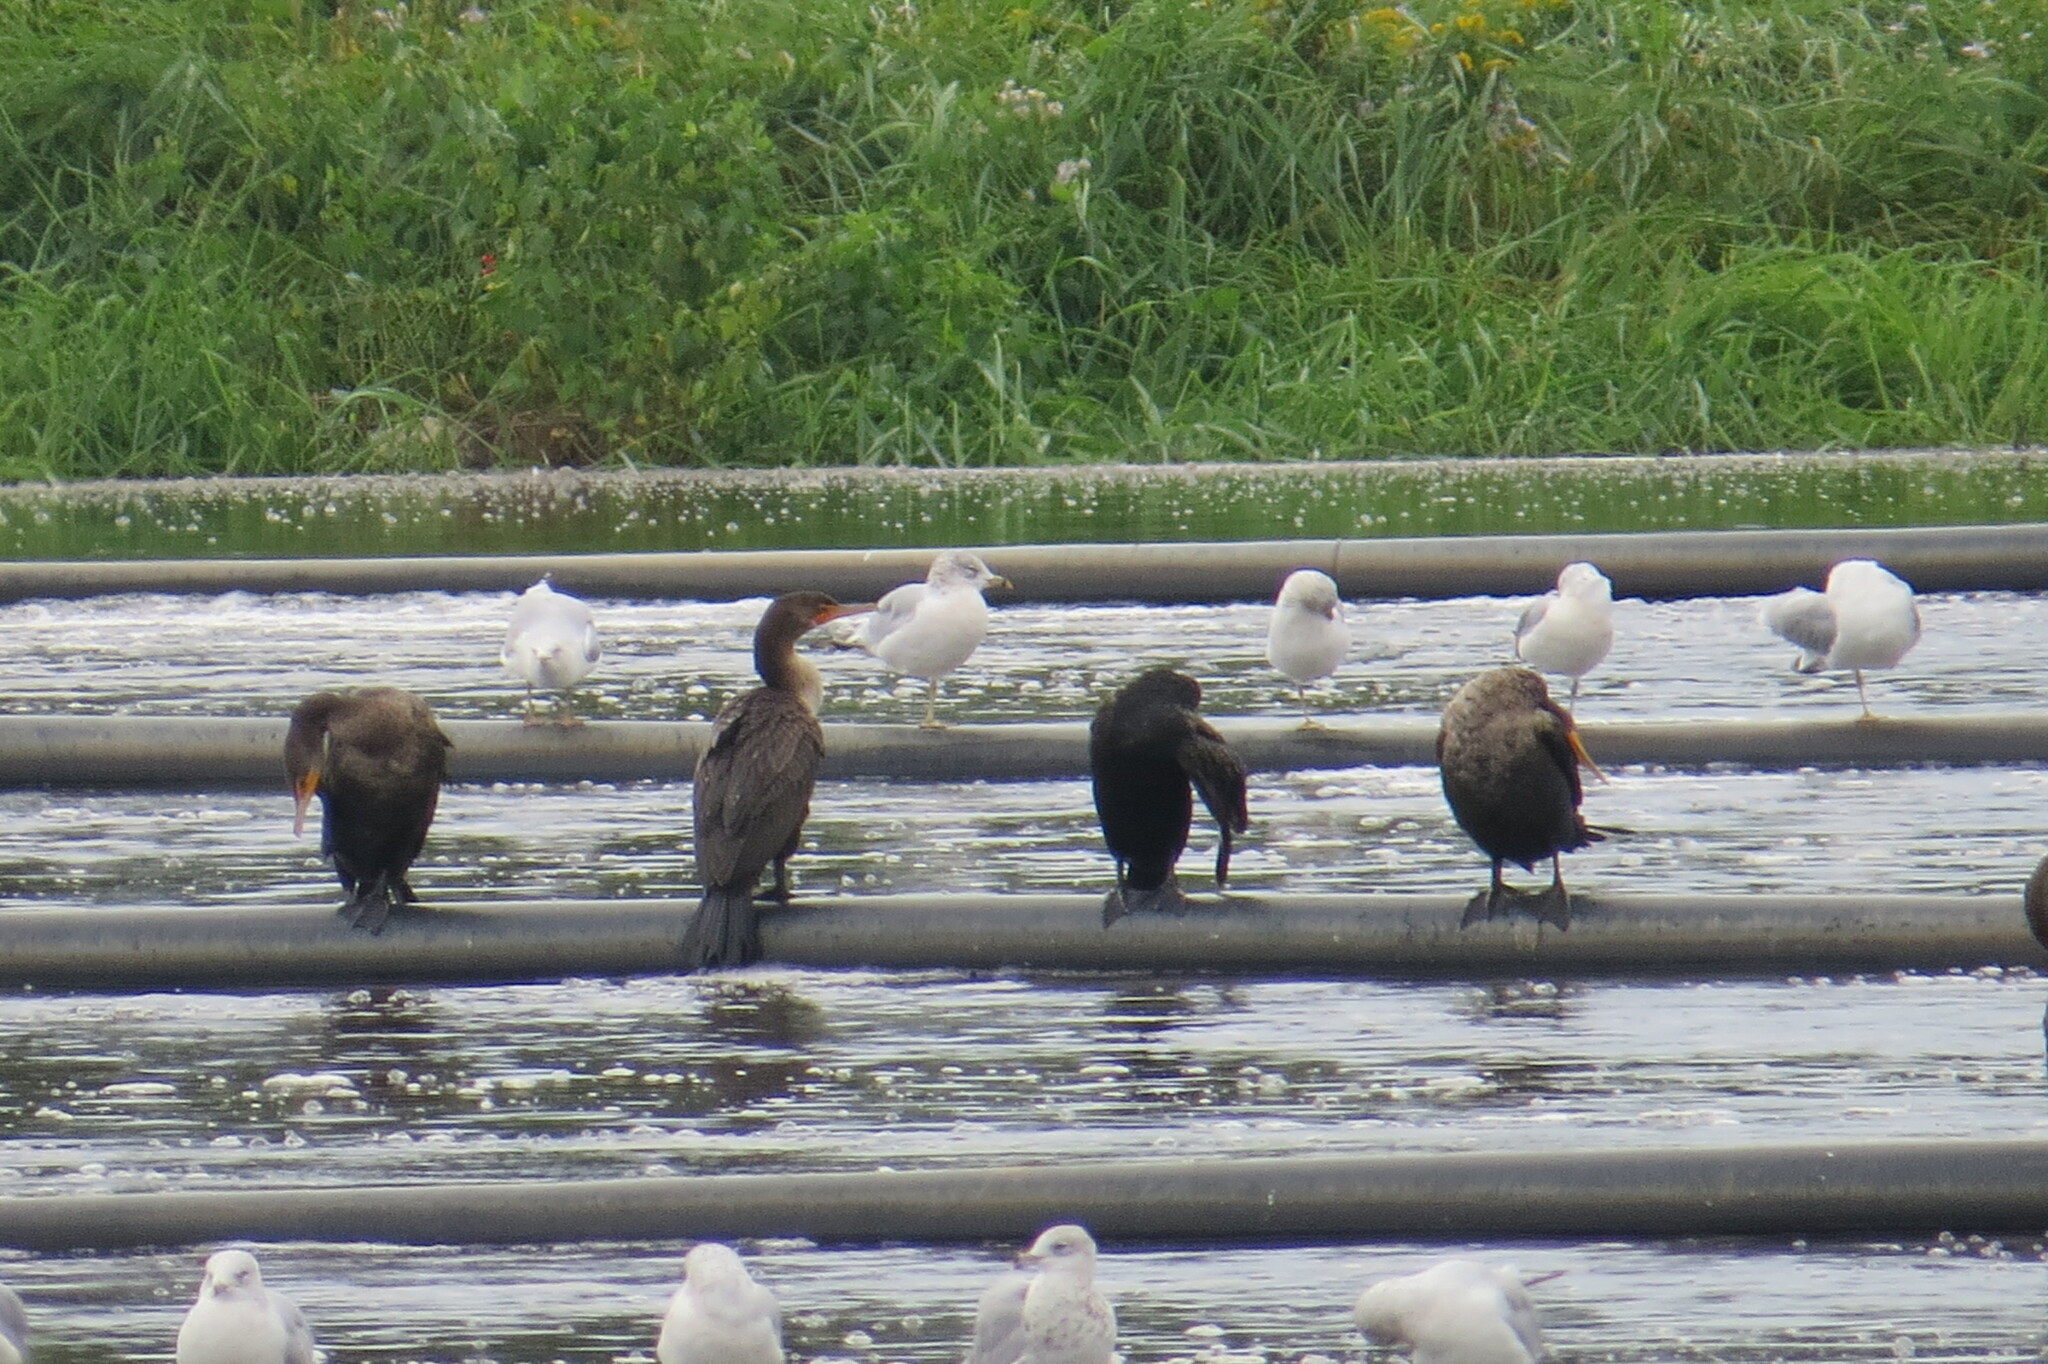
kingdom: Animalia
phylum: Chordata
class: Aves
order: Suliformes
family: Phalacrocoracidae
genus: Phalacrocorax
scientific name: Phalacrocorax auritus
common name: Double-crested cormorant
